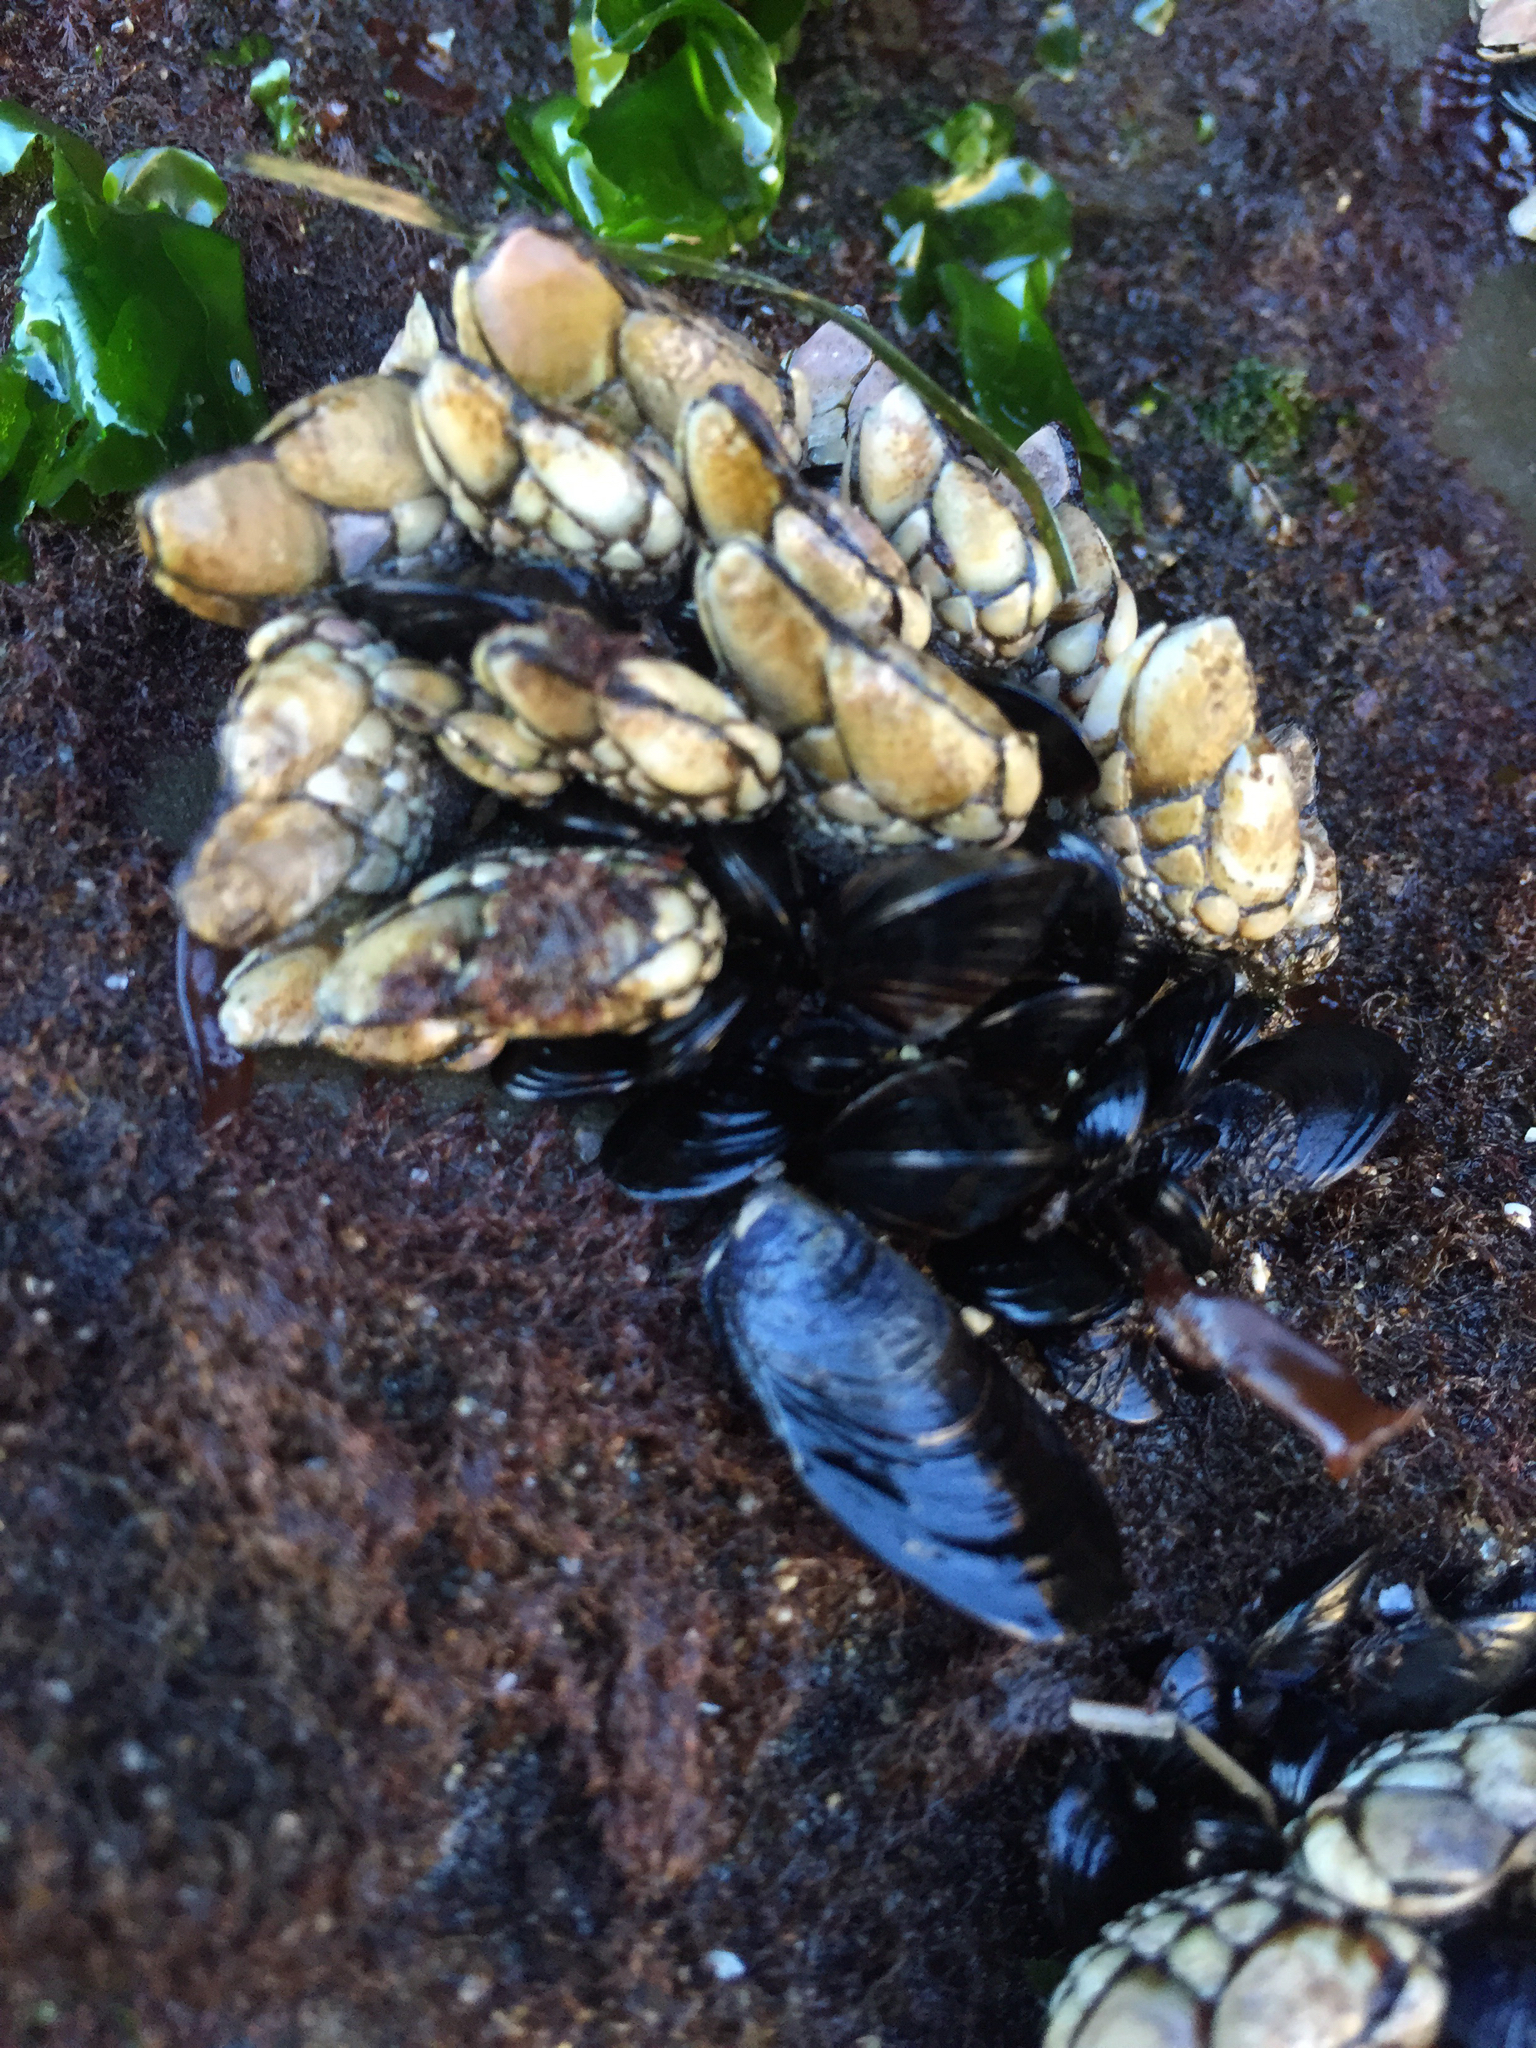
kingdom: Animalia
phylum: Arthropoda
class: Maxillopoda
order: Pedunculata
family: Pollicipedidae
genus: Pollicipes
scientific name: Pollicipes polymerus
